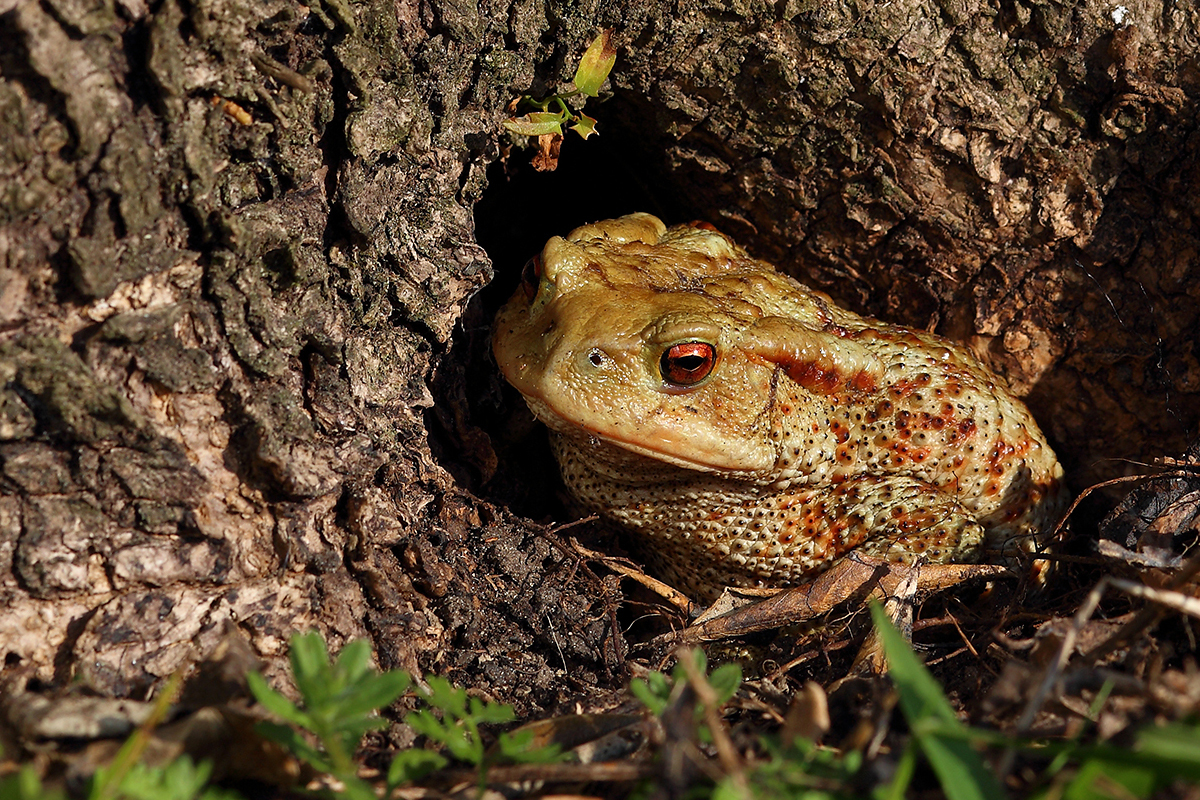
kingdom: Animalia
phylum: Chordata
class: Amphibia
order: Anura
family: Bufonidae
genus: Bufo
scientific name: Bufo bufo
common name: Common toad
